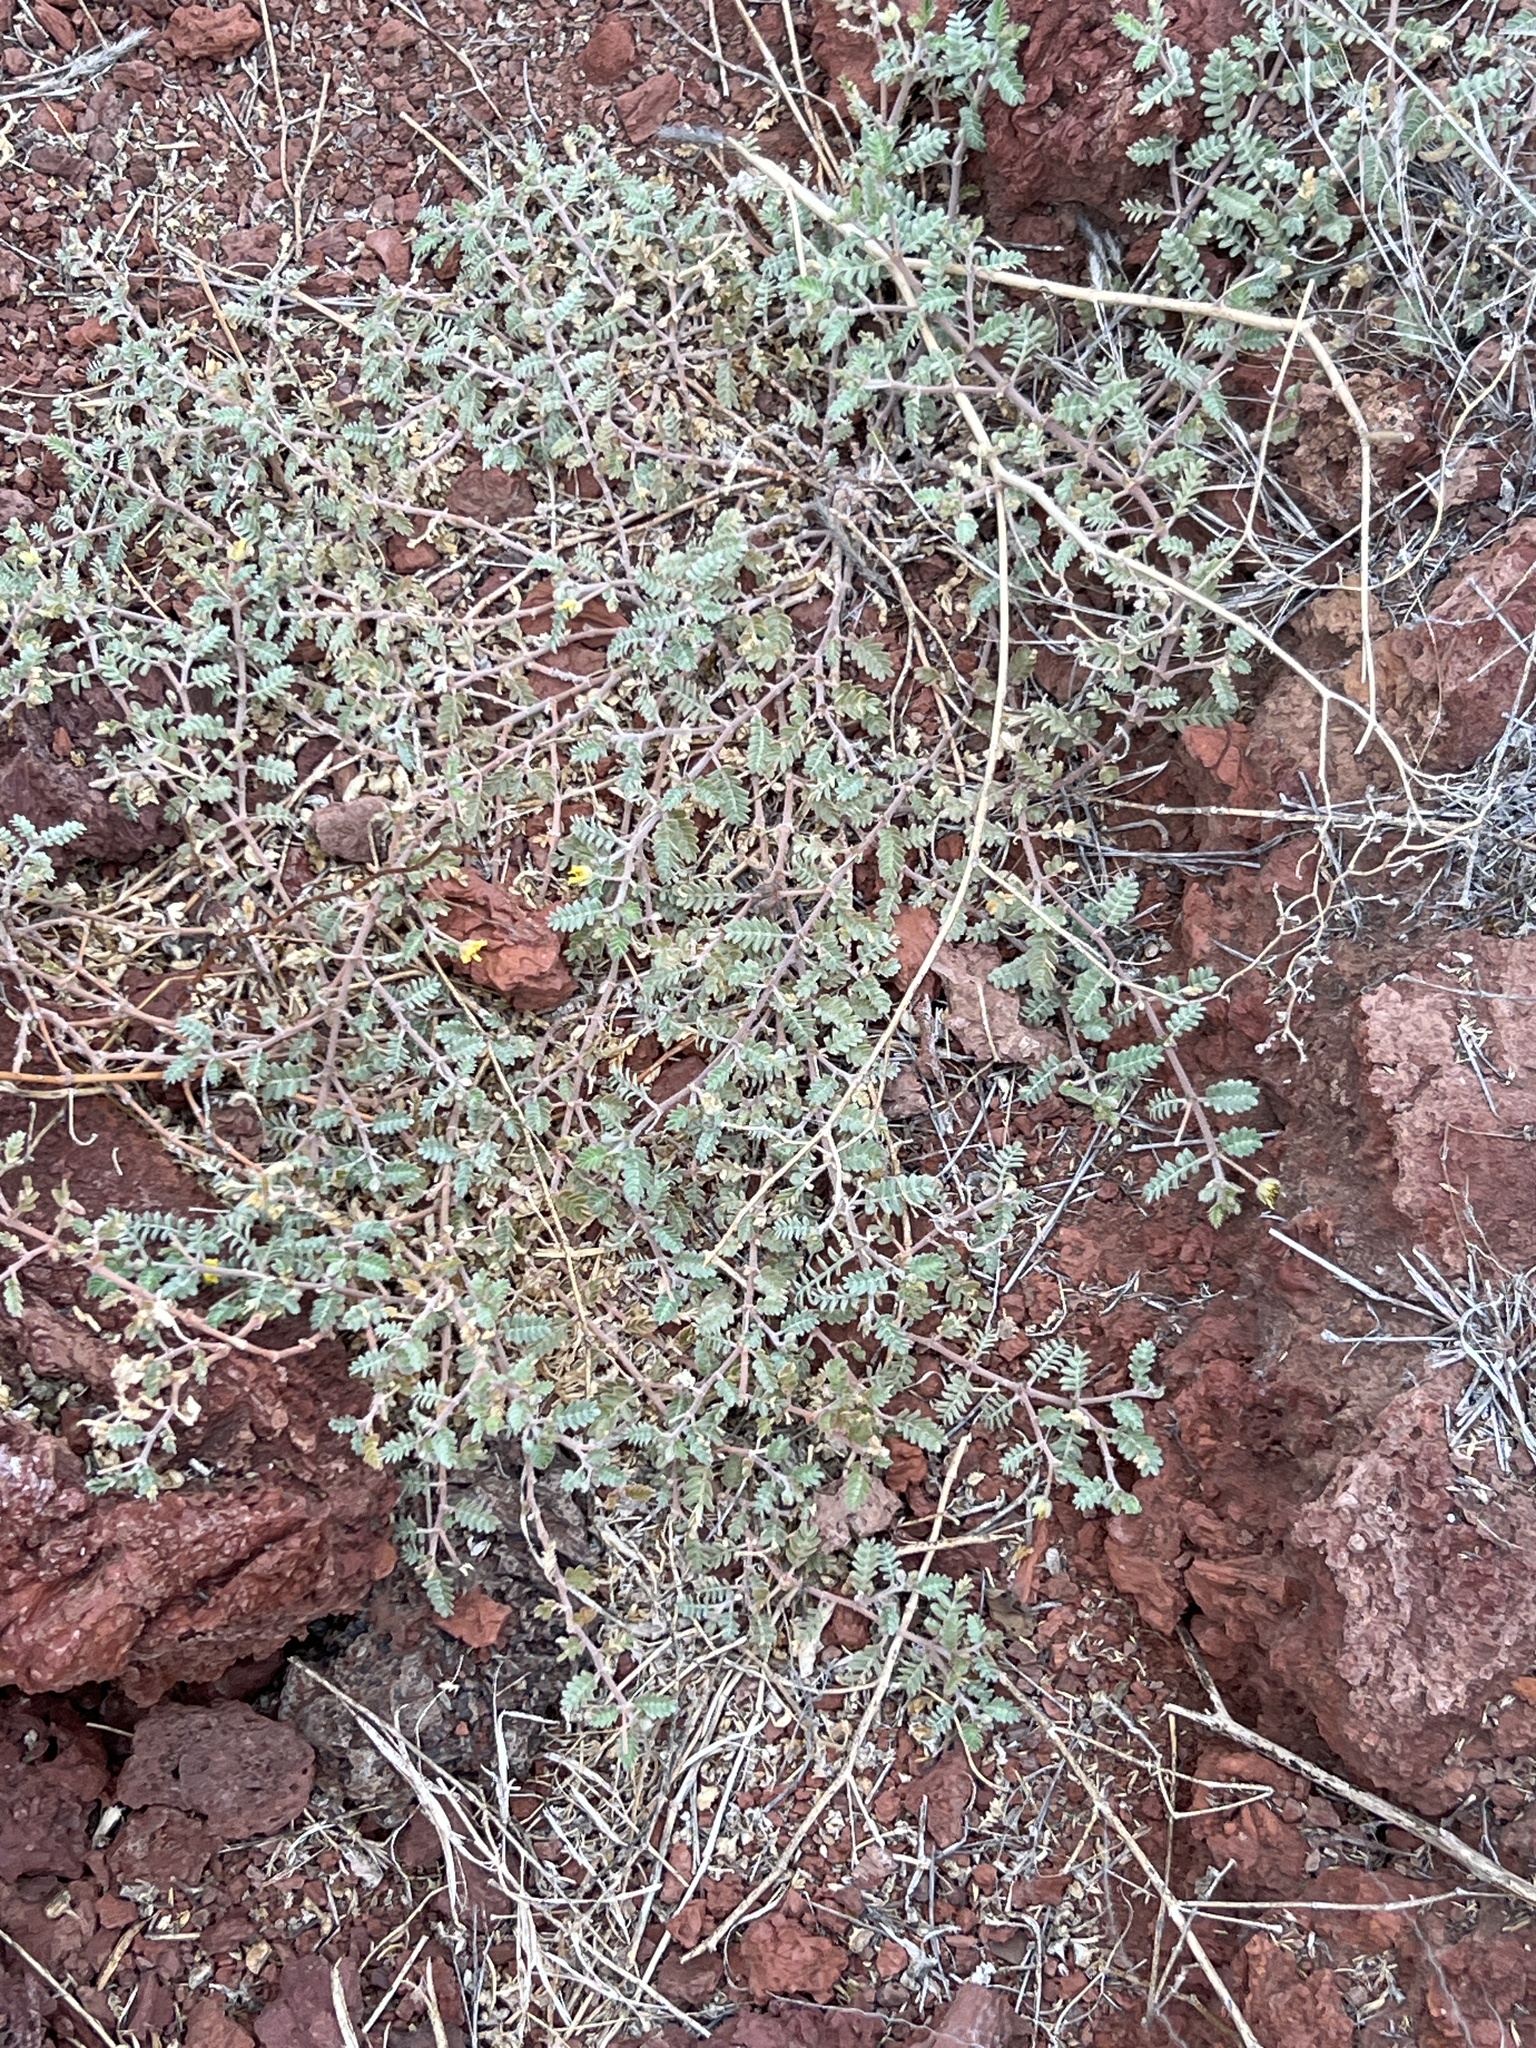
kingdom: Plantae
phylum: Tracheophyta
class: Magnoliopsida
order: Zygophyllales
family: Zygophyllaceae
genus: Tribulus
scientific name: Tribulus terrestris
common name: Puncturevine
